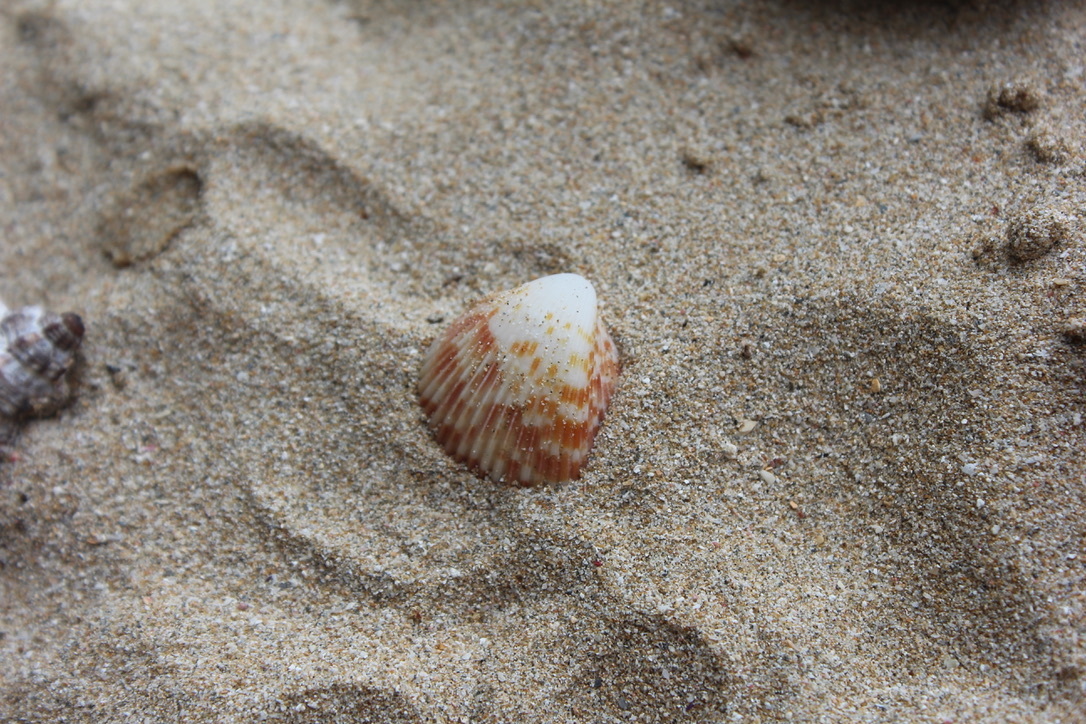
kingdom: Animalia
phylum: Mollusca
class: Bivalvia
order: Cardiida
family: Cardiidae
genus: Americardia
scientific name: Americardia media
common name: Atlantic strawberry-cockle
